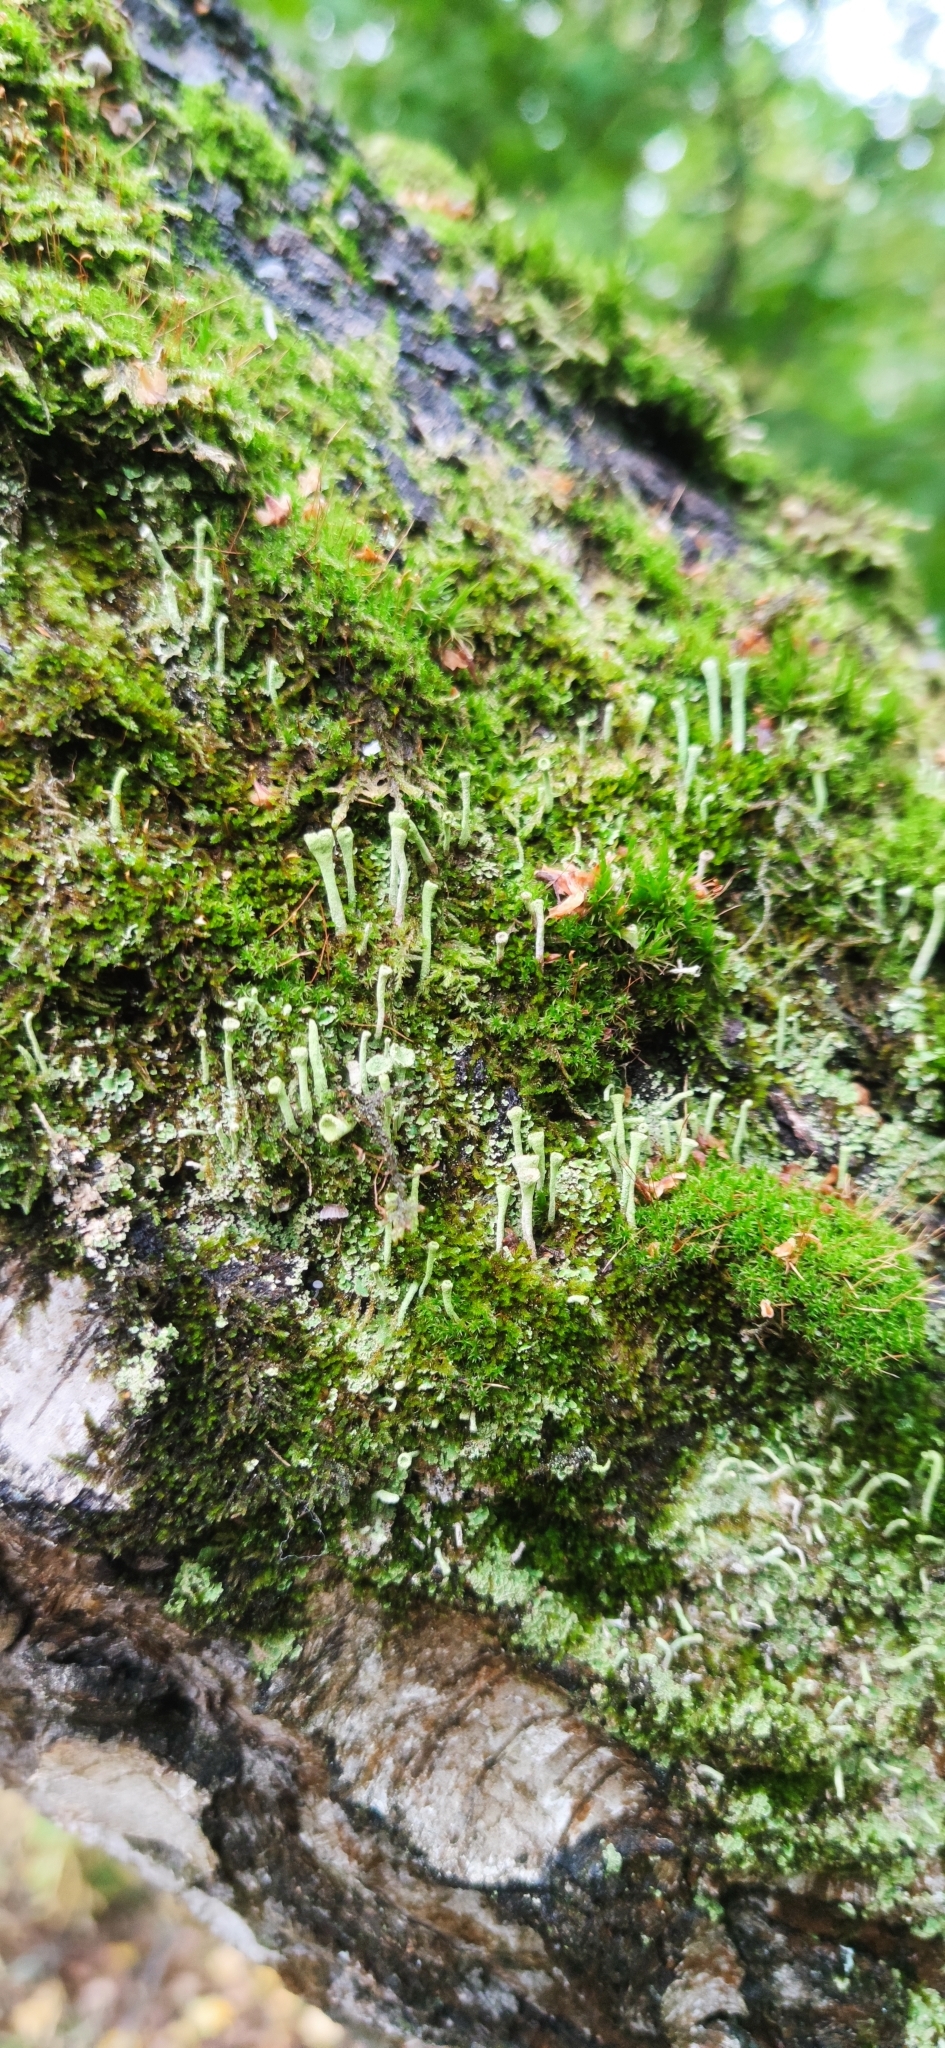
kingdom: Fungi
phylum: Ascomycota
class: Lecanoromycetes
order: Lecanorales
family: Cladoniaceae
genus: Cladonia
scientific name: Cladonia deformis
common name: Lesser sulphur-cup lichen
